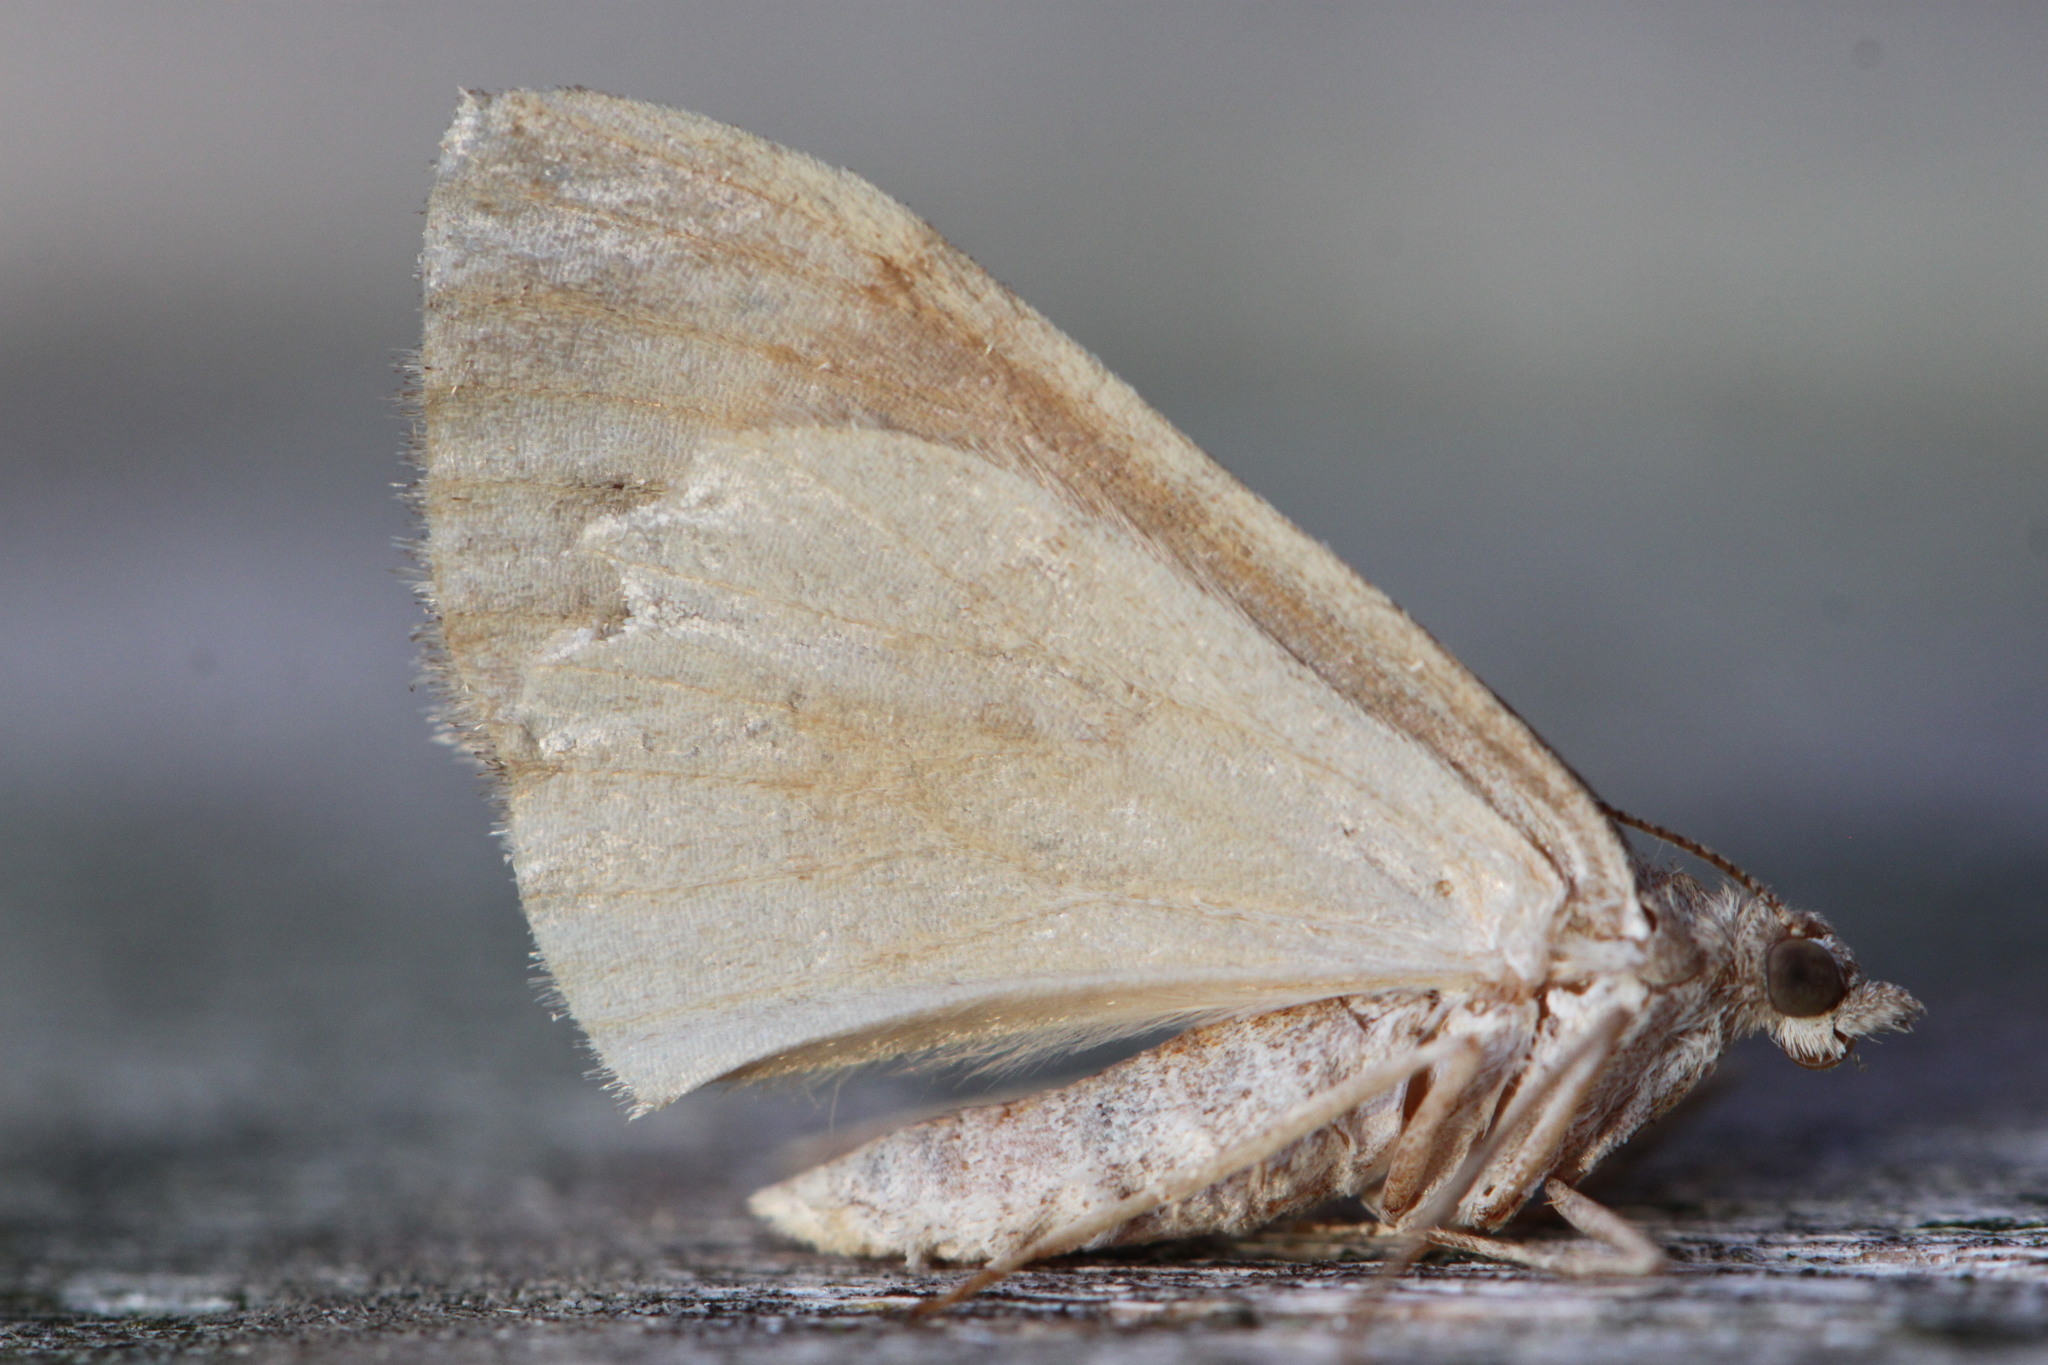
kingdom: Animalia
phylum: Arthropoda
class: Insecta
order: Lepidoptera
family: Geometridae
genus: Pennithera
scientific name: Pennithera firmata
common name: Pine carpet
